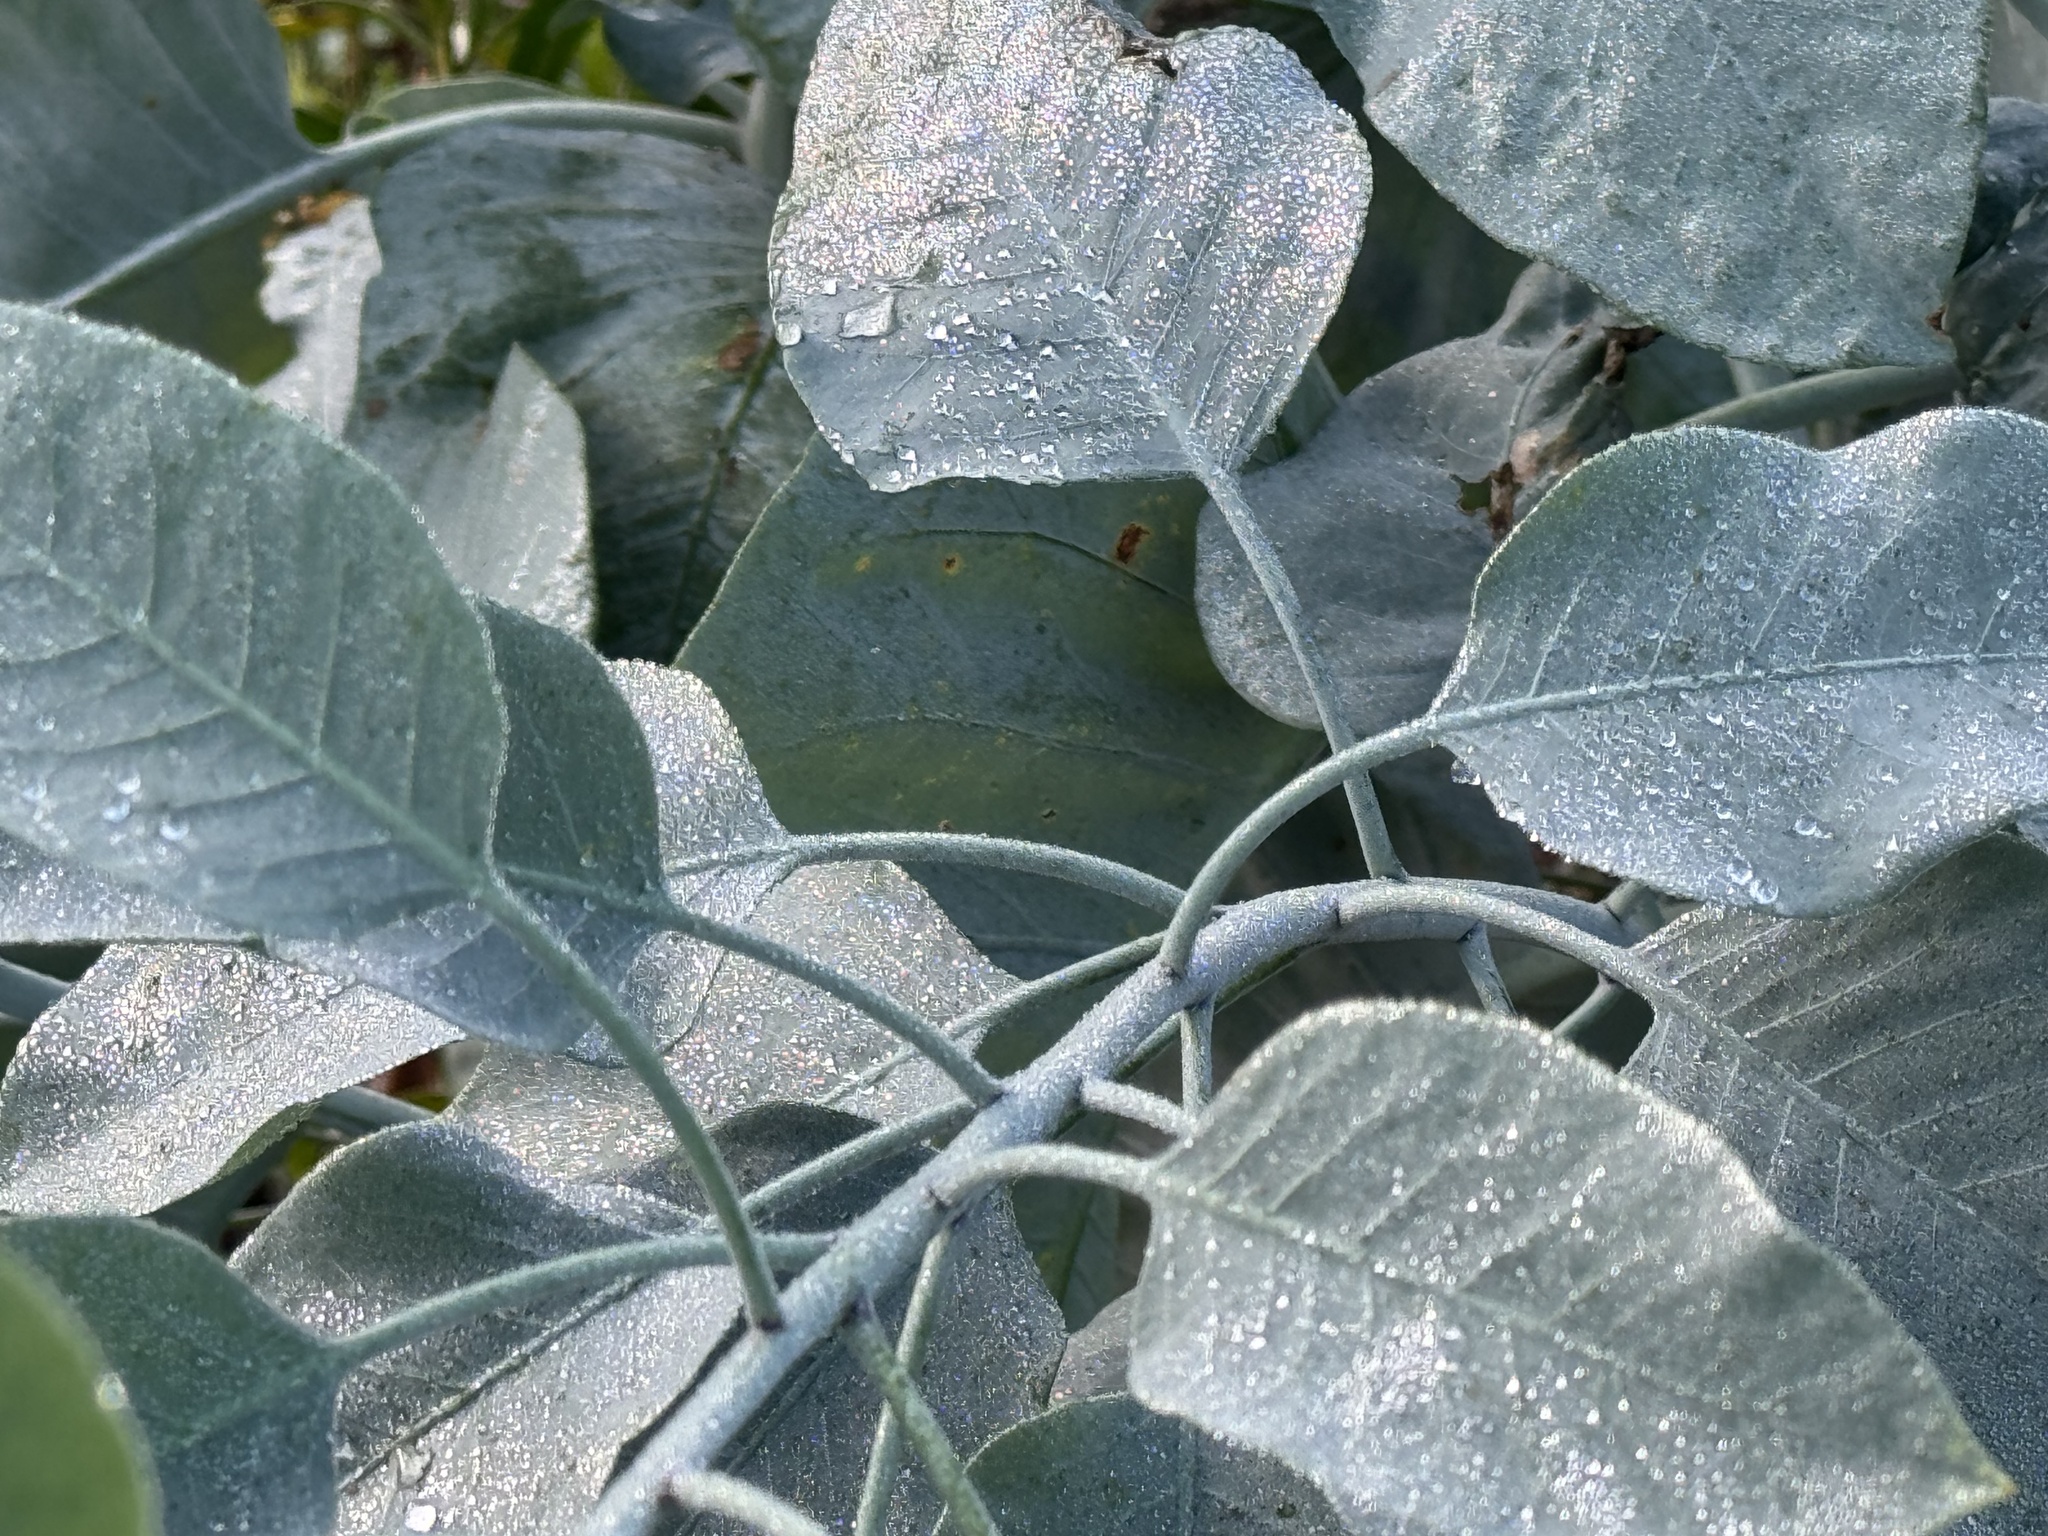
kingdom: Plantae
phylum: Tracheophyta
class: Magnoliopsida
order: Solanales
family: Solanaceae
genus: Nicotiana
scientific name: Nicotiana glauca
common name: Tree tobacco
